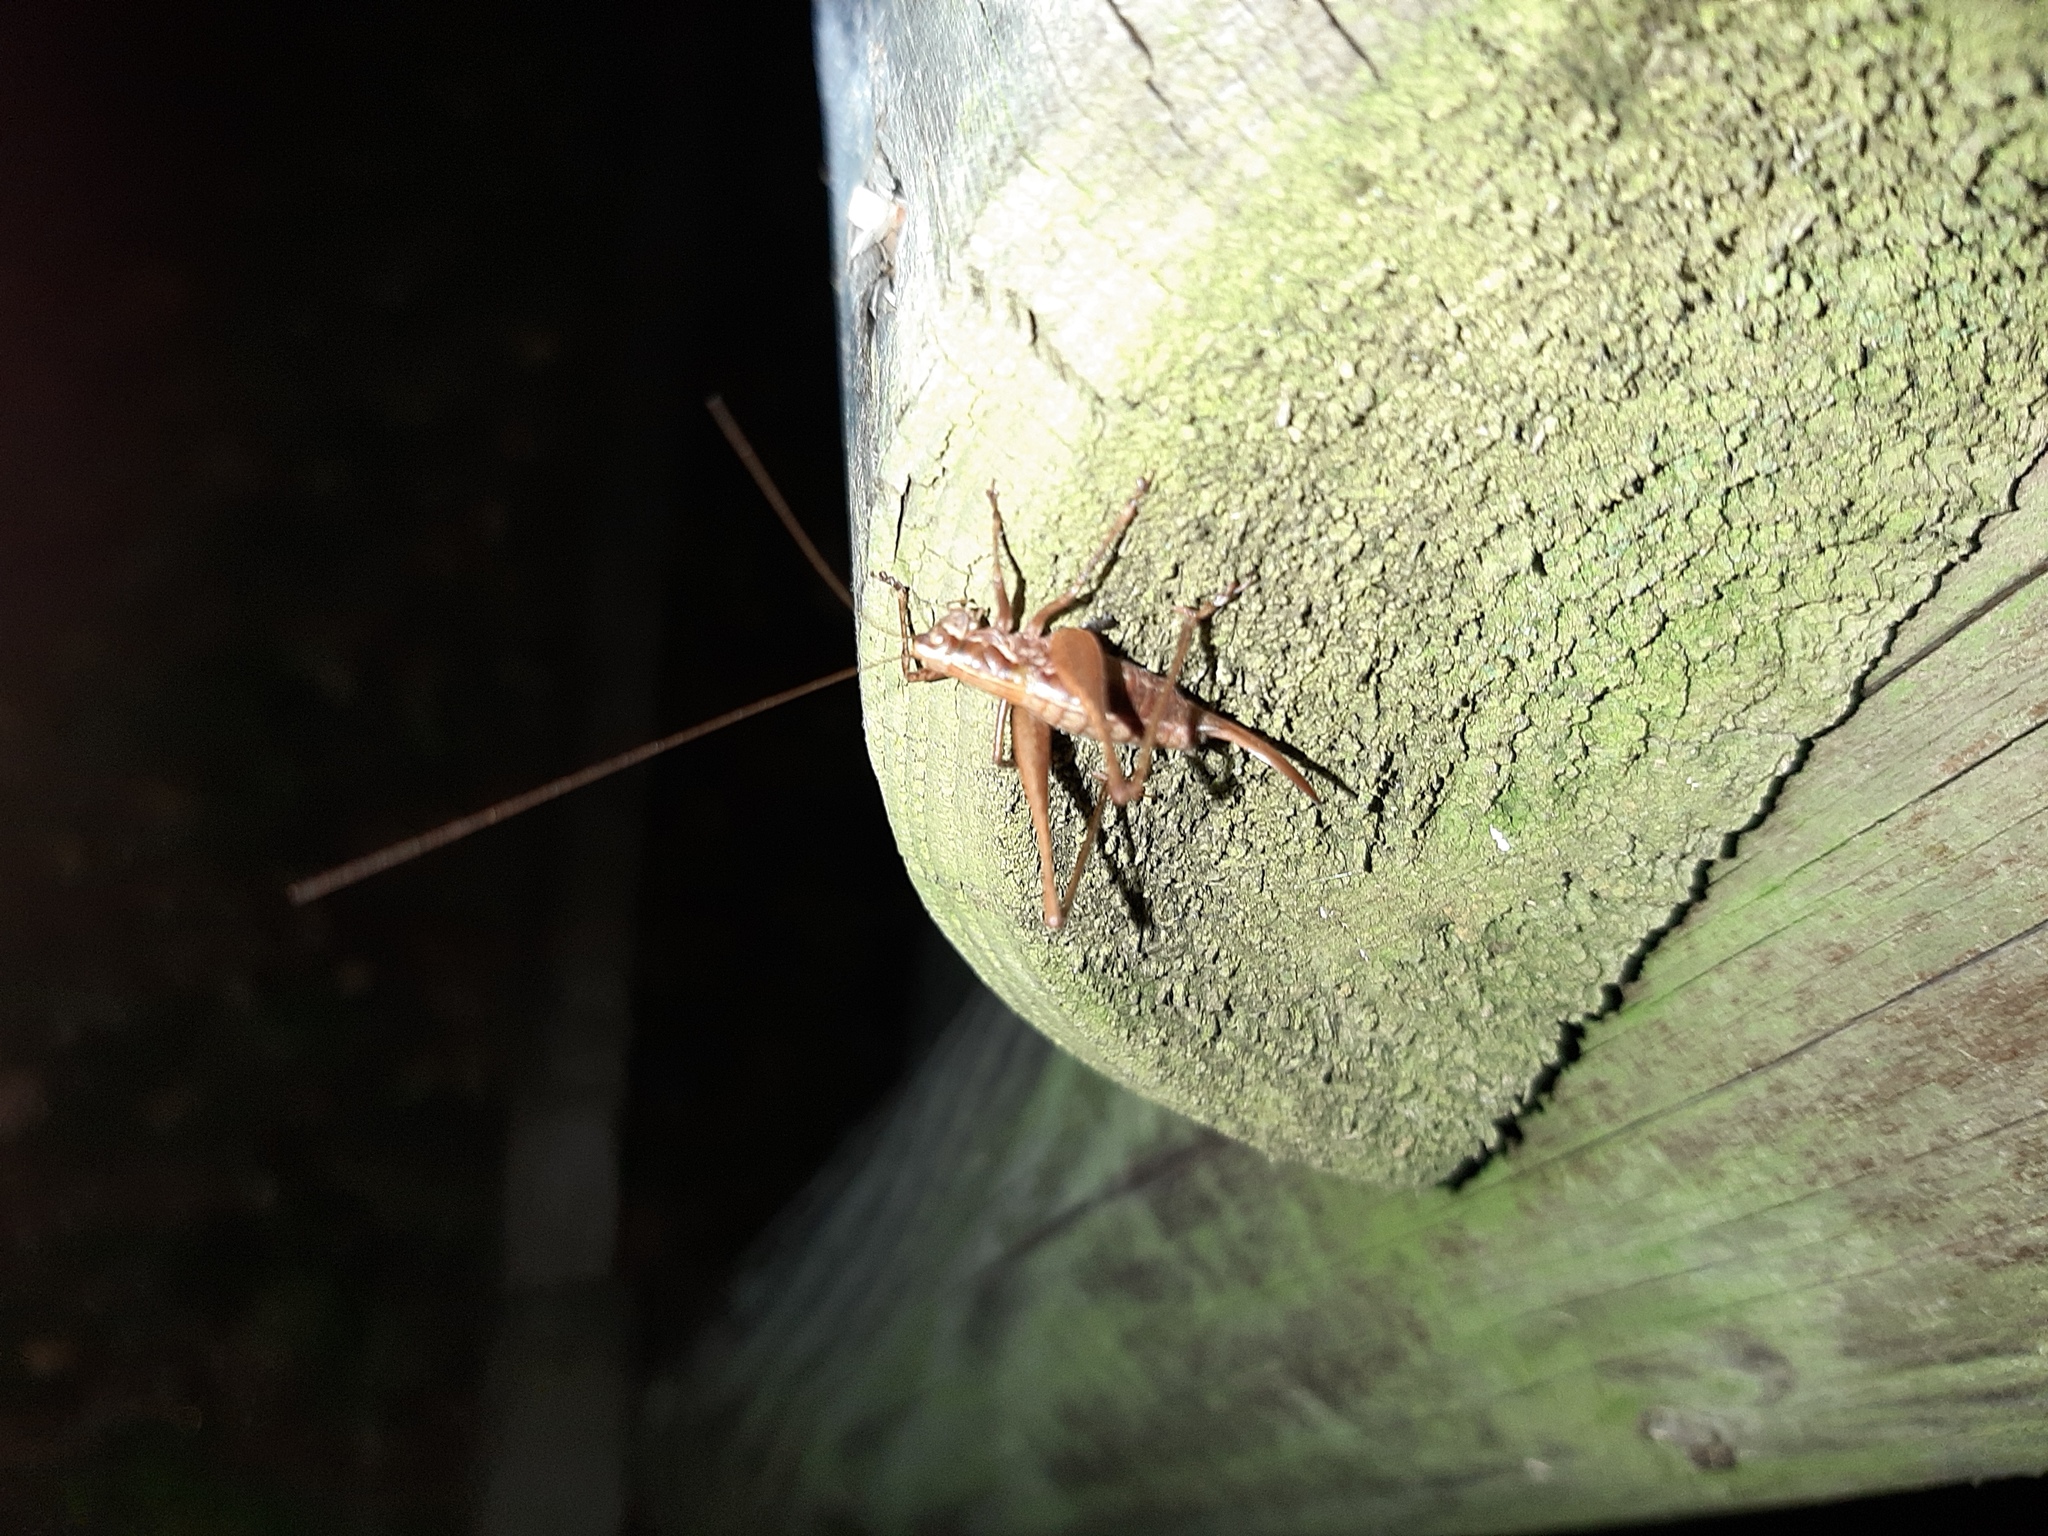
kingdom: Animalia
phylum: Arthropoda
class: Insecta
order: Orthoptera
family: Tettigoniidae
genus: Yersinella
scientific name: Yersinella raymondii
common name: Raymond's bush-cricket
